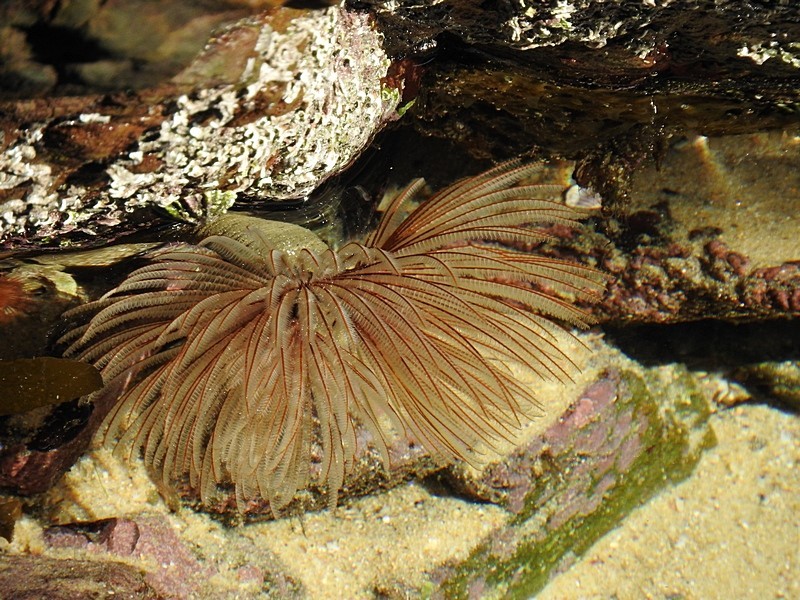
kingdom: Animalia
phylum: Annelida
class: Polychaeta
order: Sabellida
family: Sabellidae
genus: Sabellastarte
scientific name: Sabellastarte australiensis
